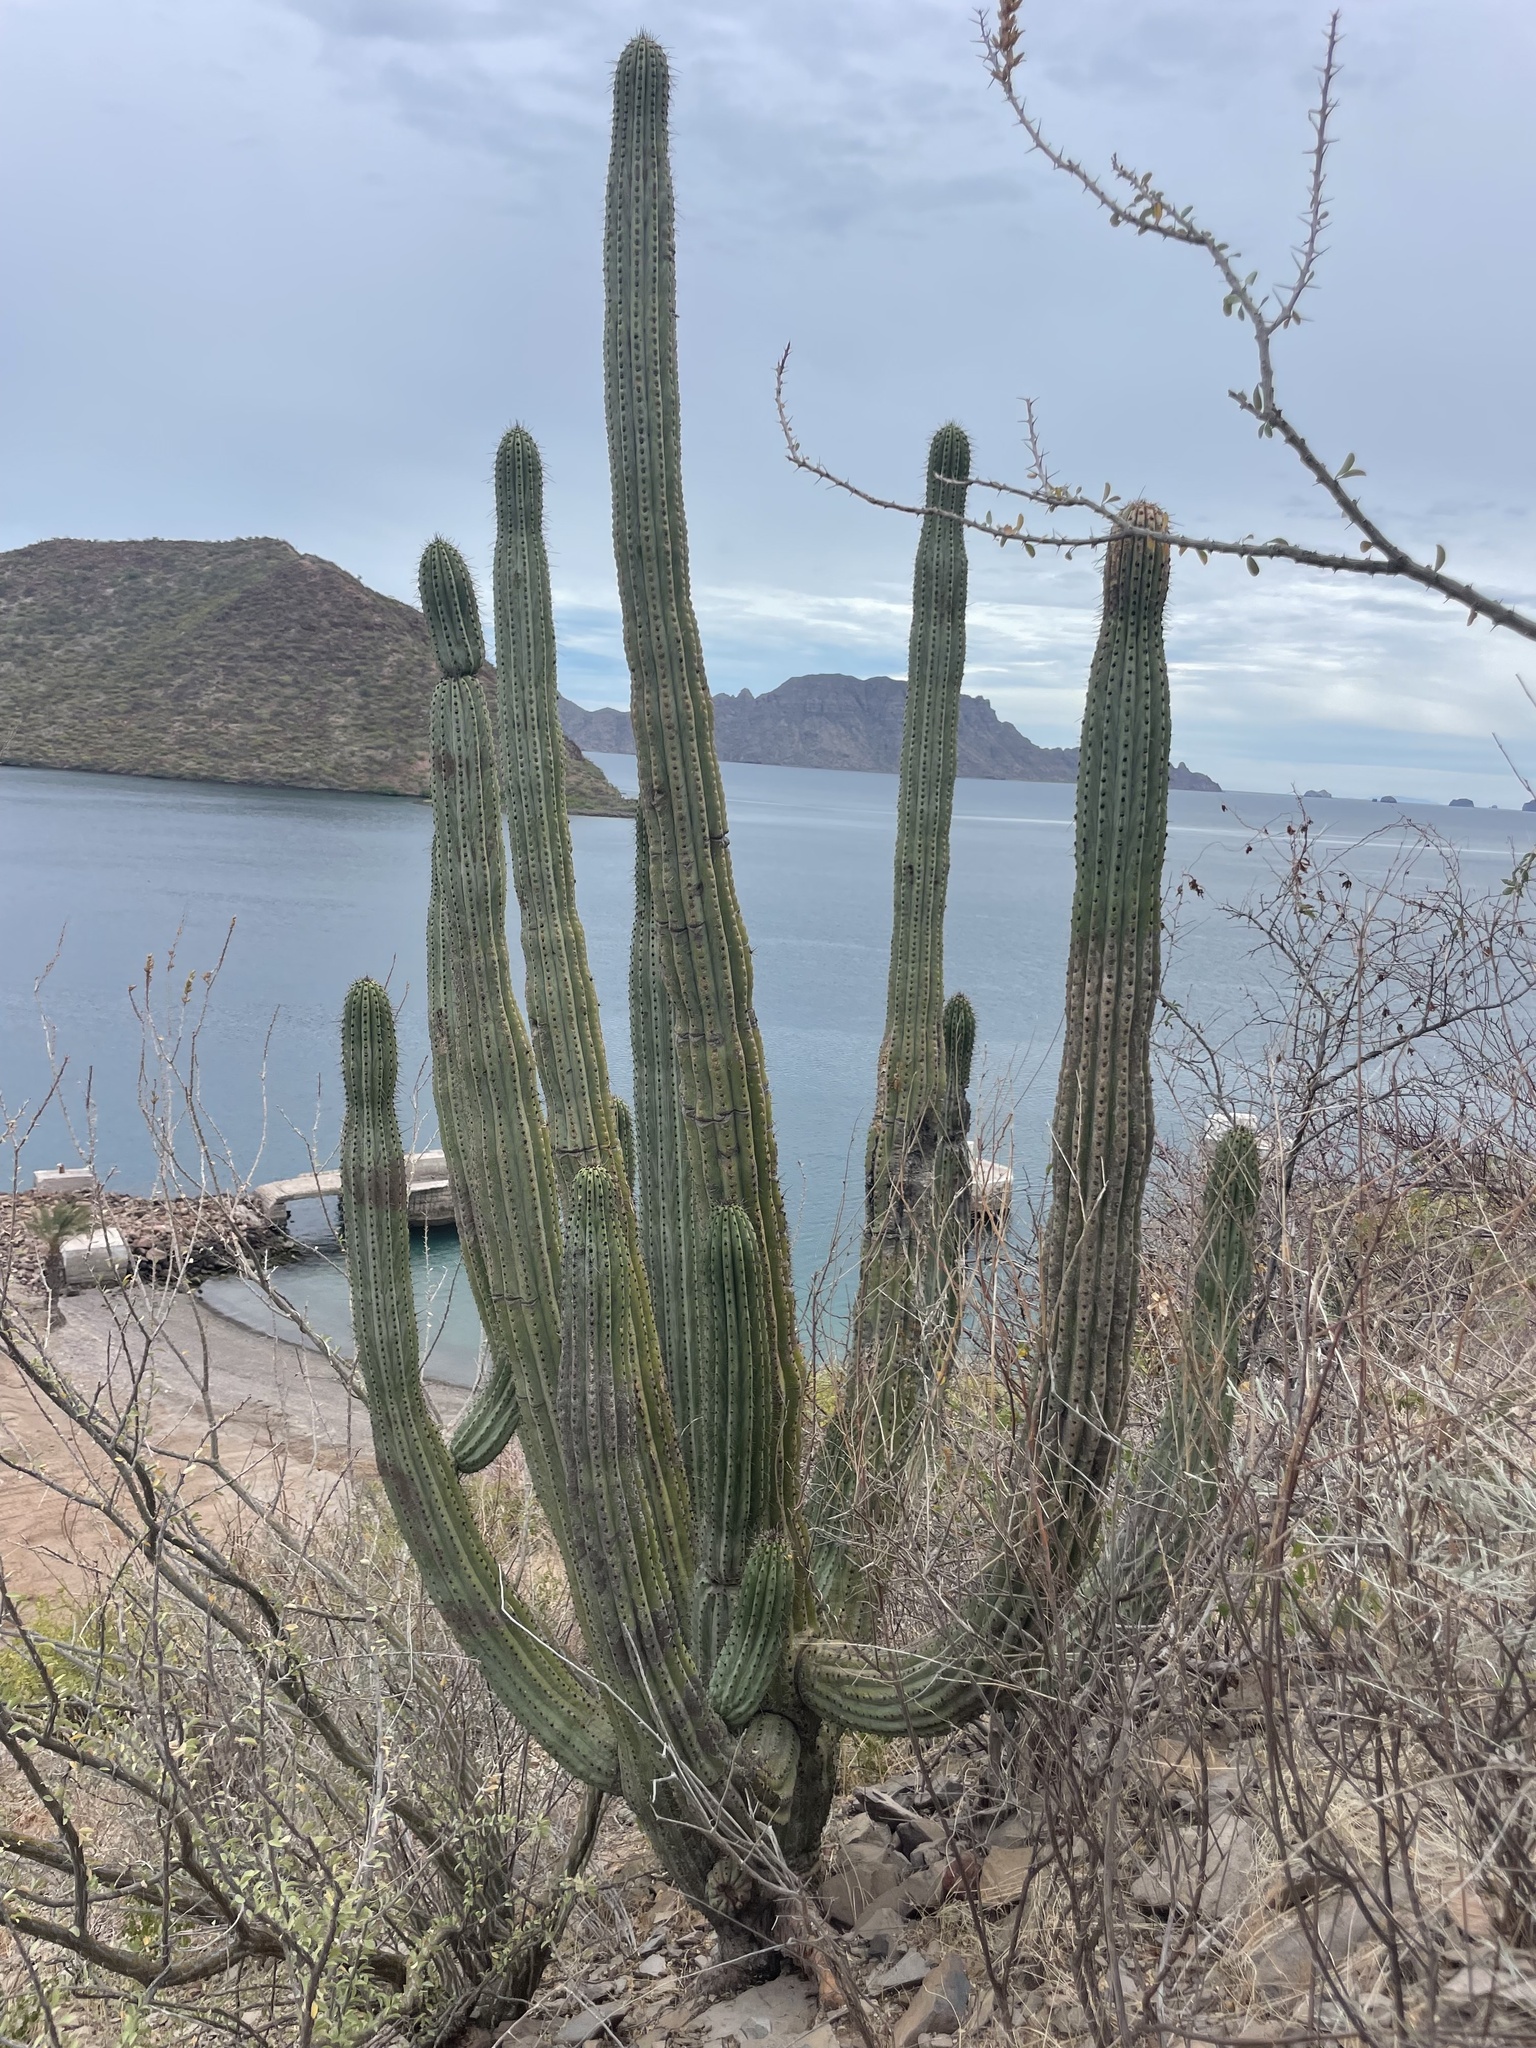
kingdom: Plantae
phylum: Tracheophyta
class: Magnoliopsida
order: Caryophyllales
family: Cactaceae
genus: Stenocereus
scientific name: Stenocereus thurberi
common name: Organ pipe cactus
